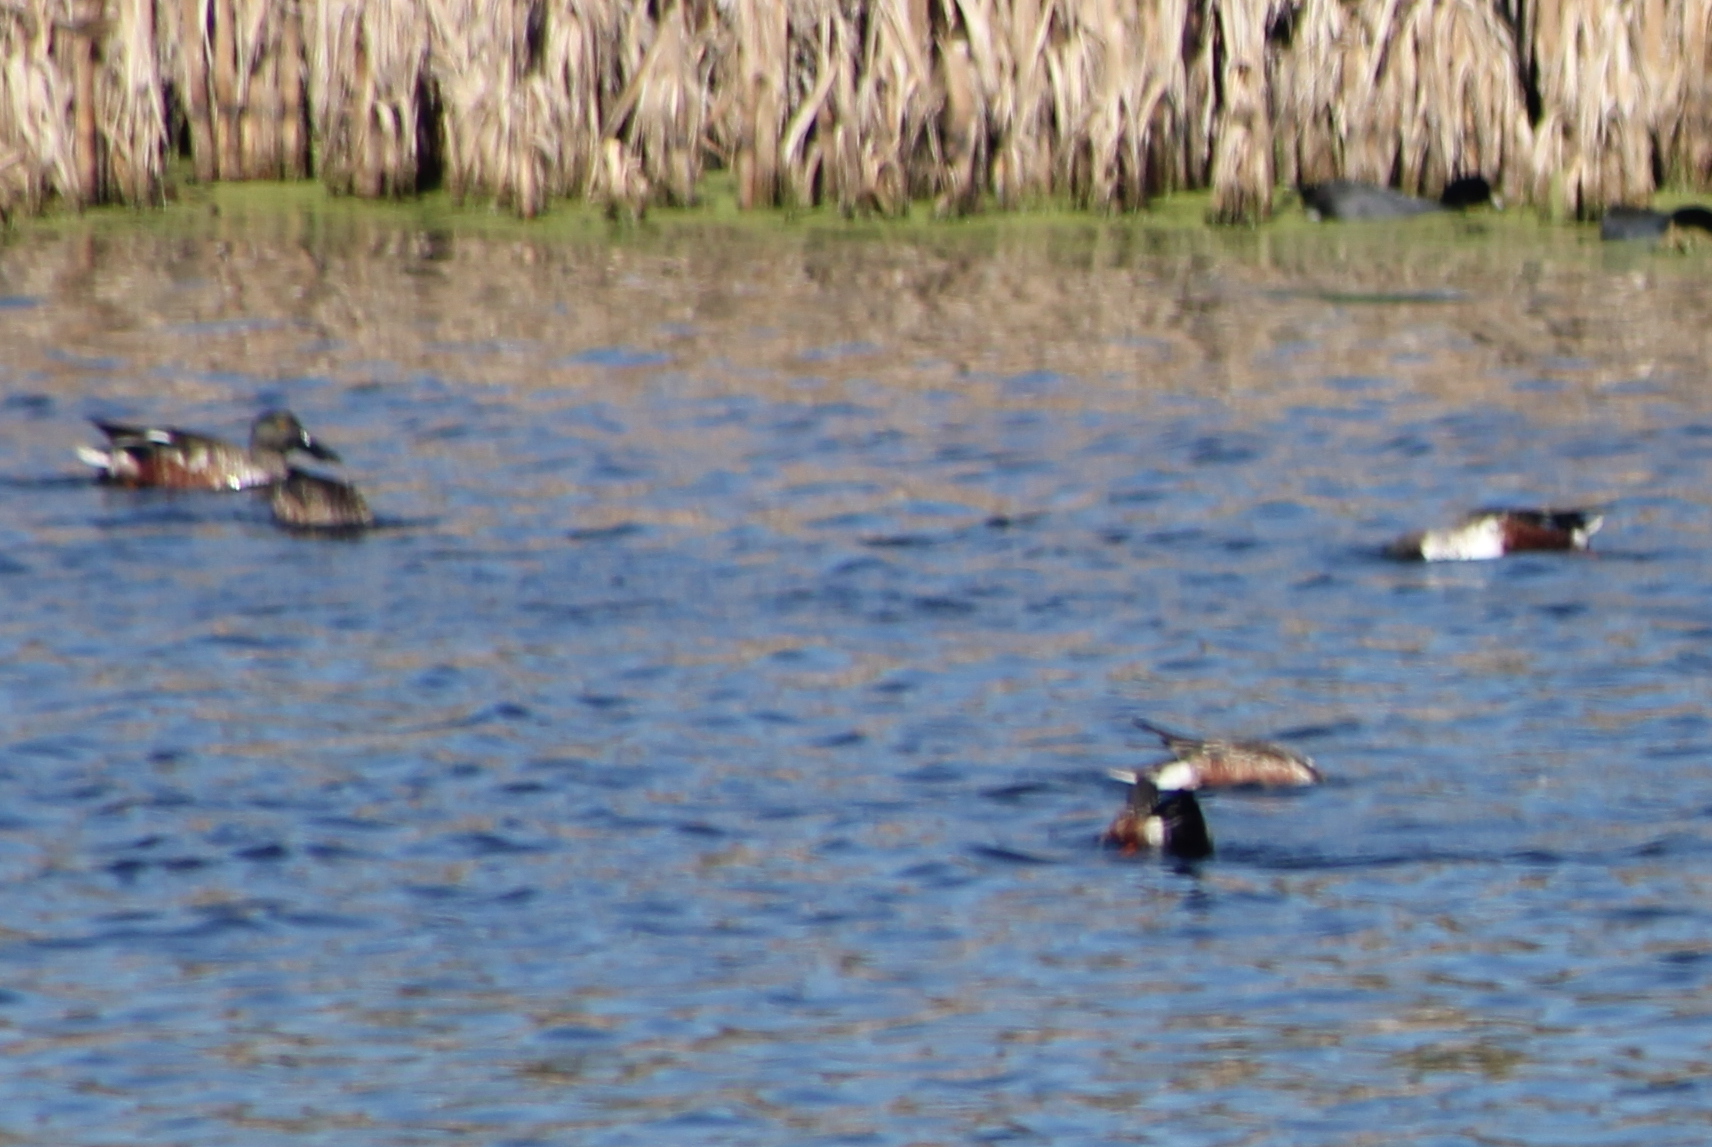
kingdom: Animalia
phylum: Chordata
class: Aves
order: Anseriformes
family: Anatidae
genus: Spatula
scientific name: Spatula clypeata
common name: Northern shoveler
